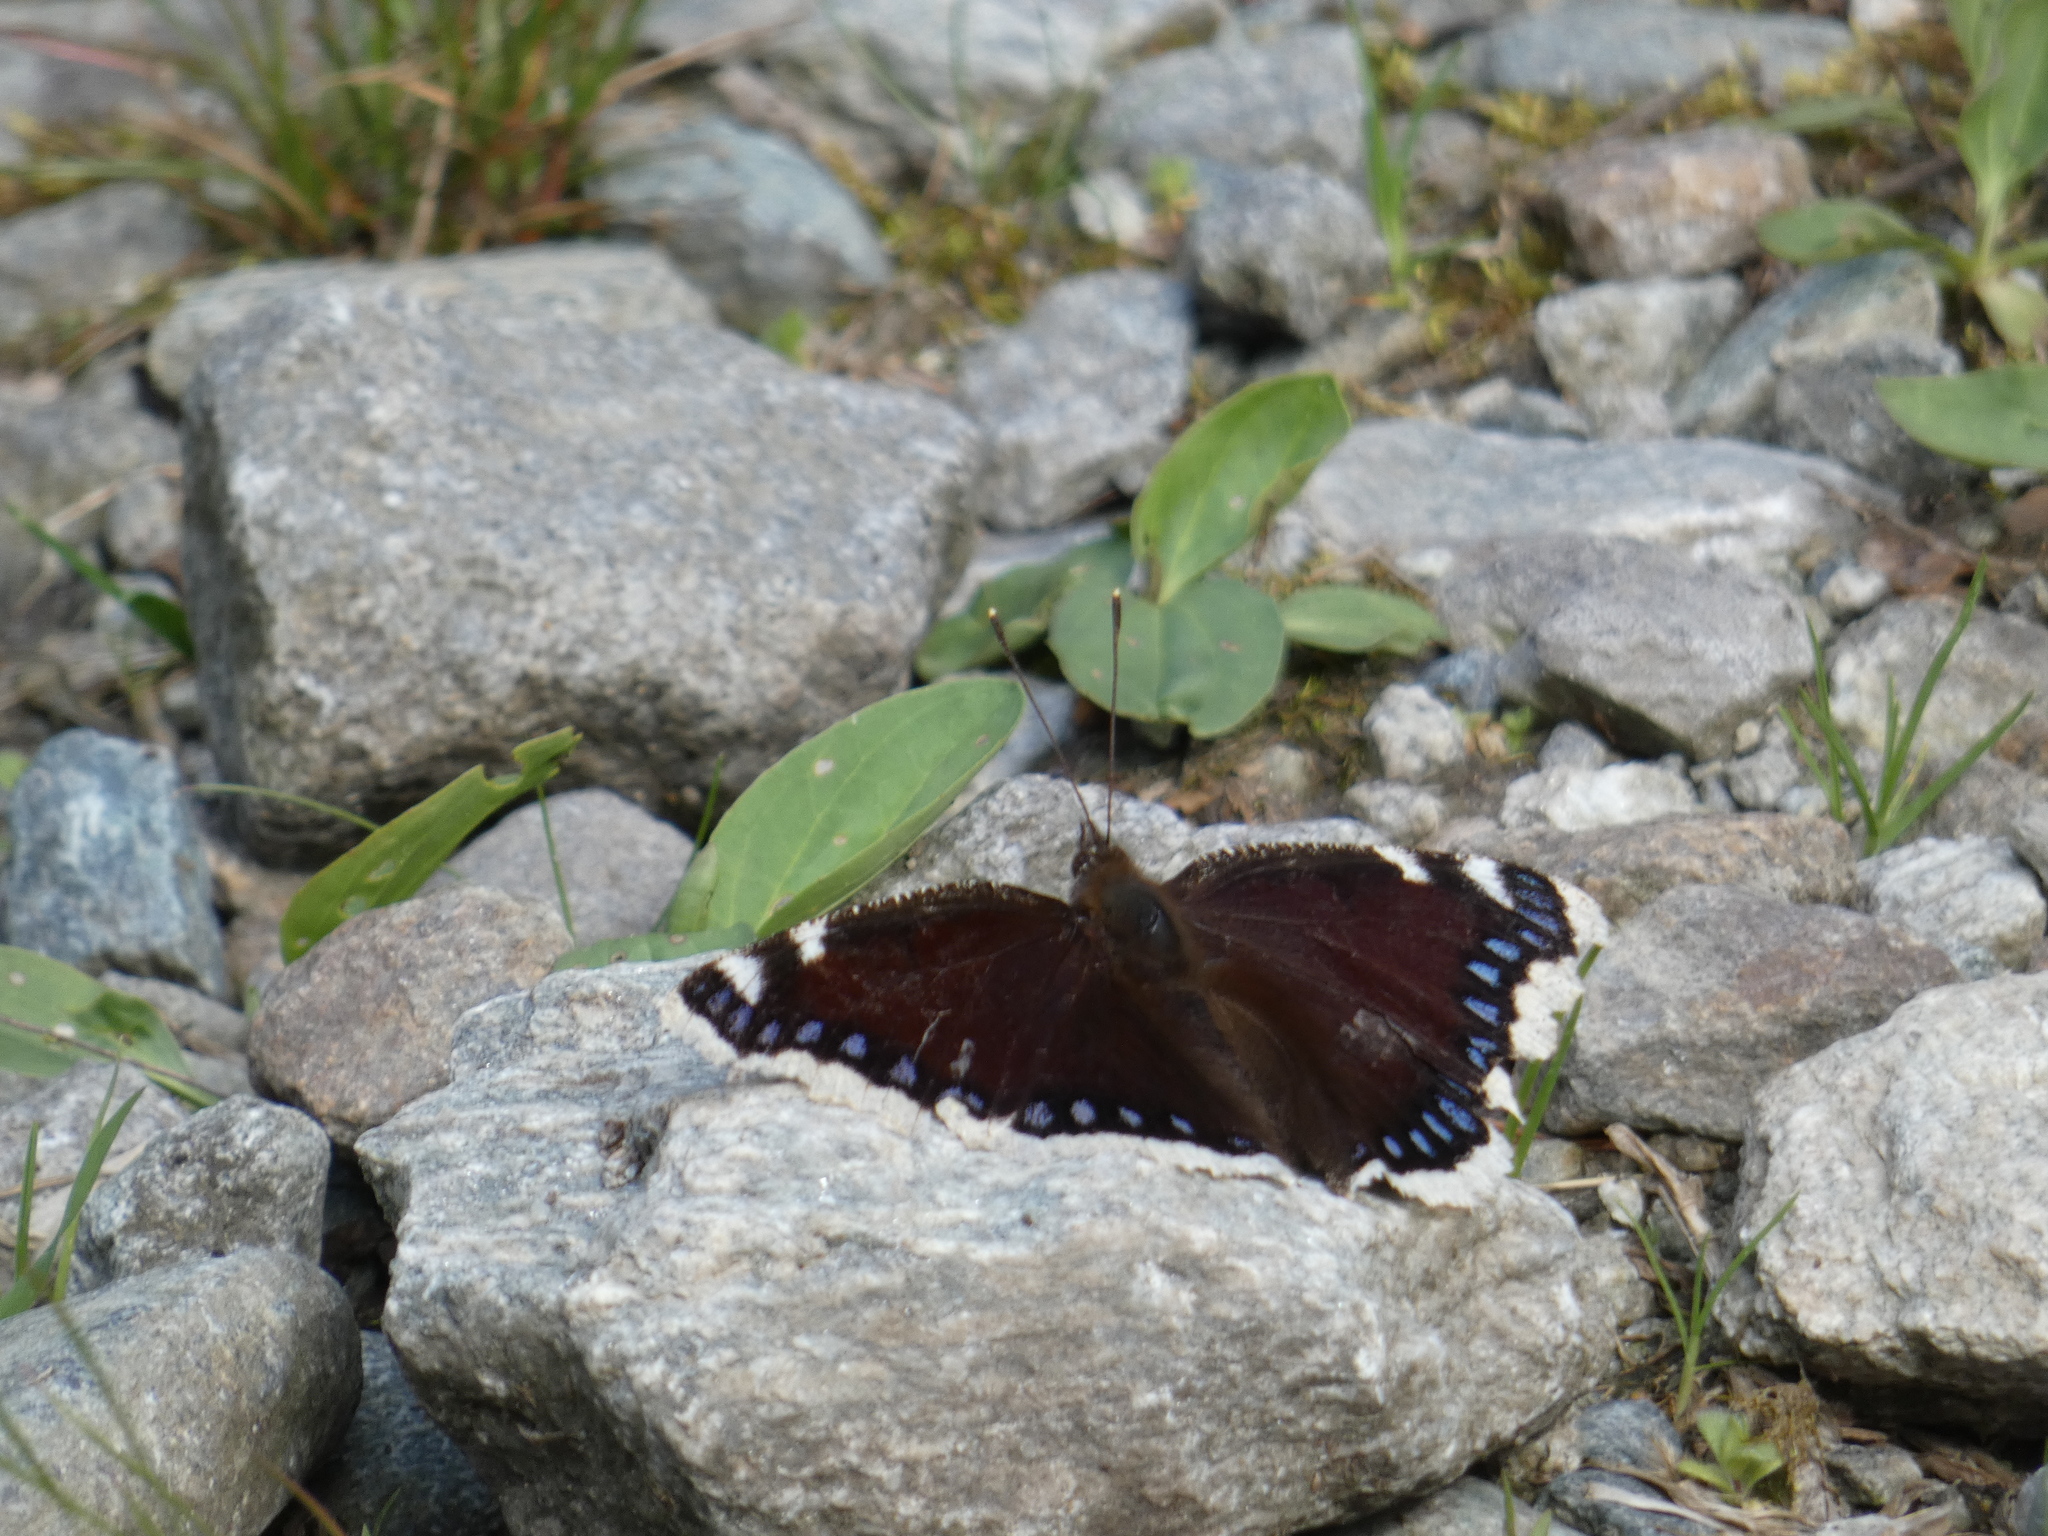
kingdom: Animalia
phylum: Arthropoda
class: Insecta
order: Lepidoptera
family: Nymphalidae
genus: Nymphalis
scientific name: Nymphalis antiopa
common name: Camberwell beauty
